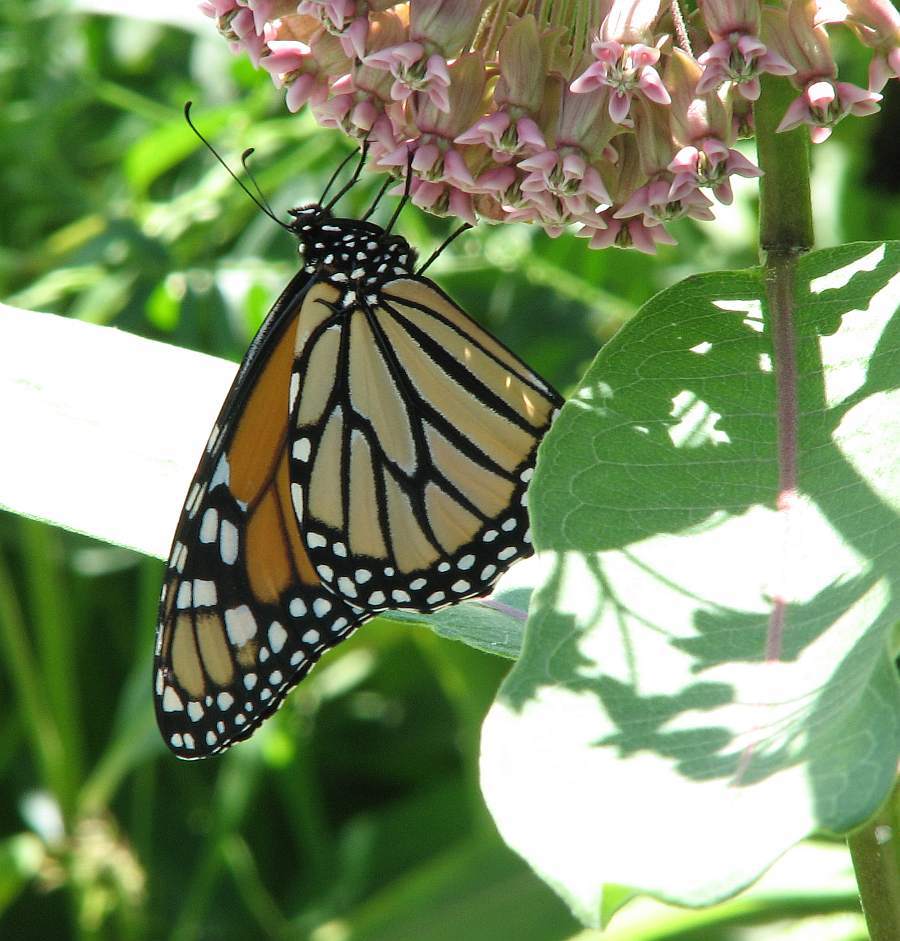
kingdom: Animalia
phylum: Arthropoda
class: Insecta
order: Lepidoptera
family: Nymphalidae
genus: Danaus
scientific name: Danaus plexippus
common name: Monarch
